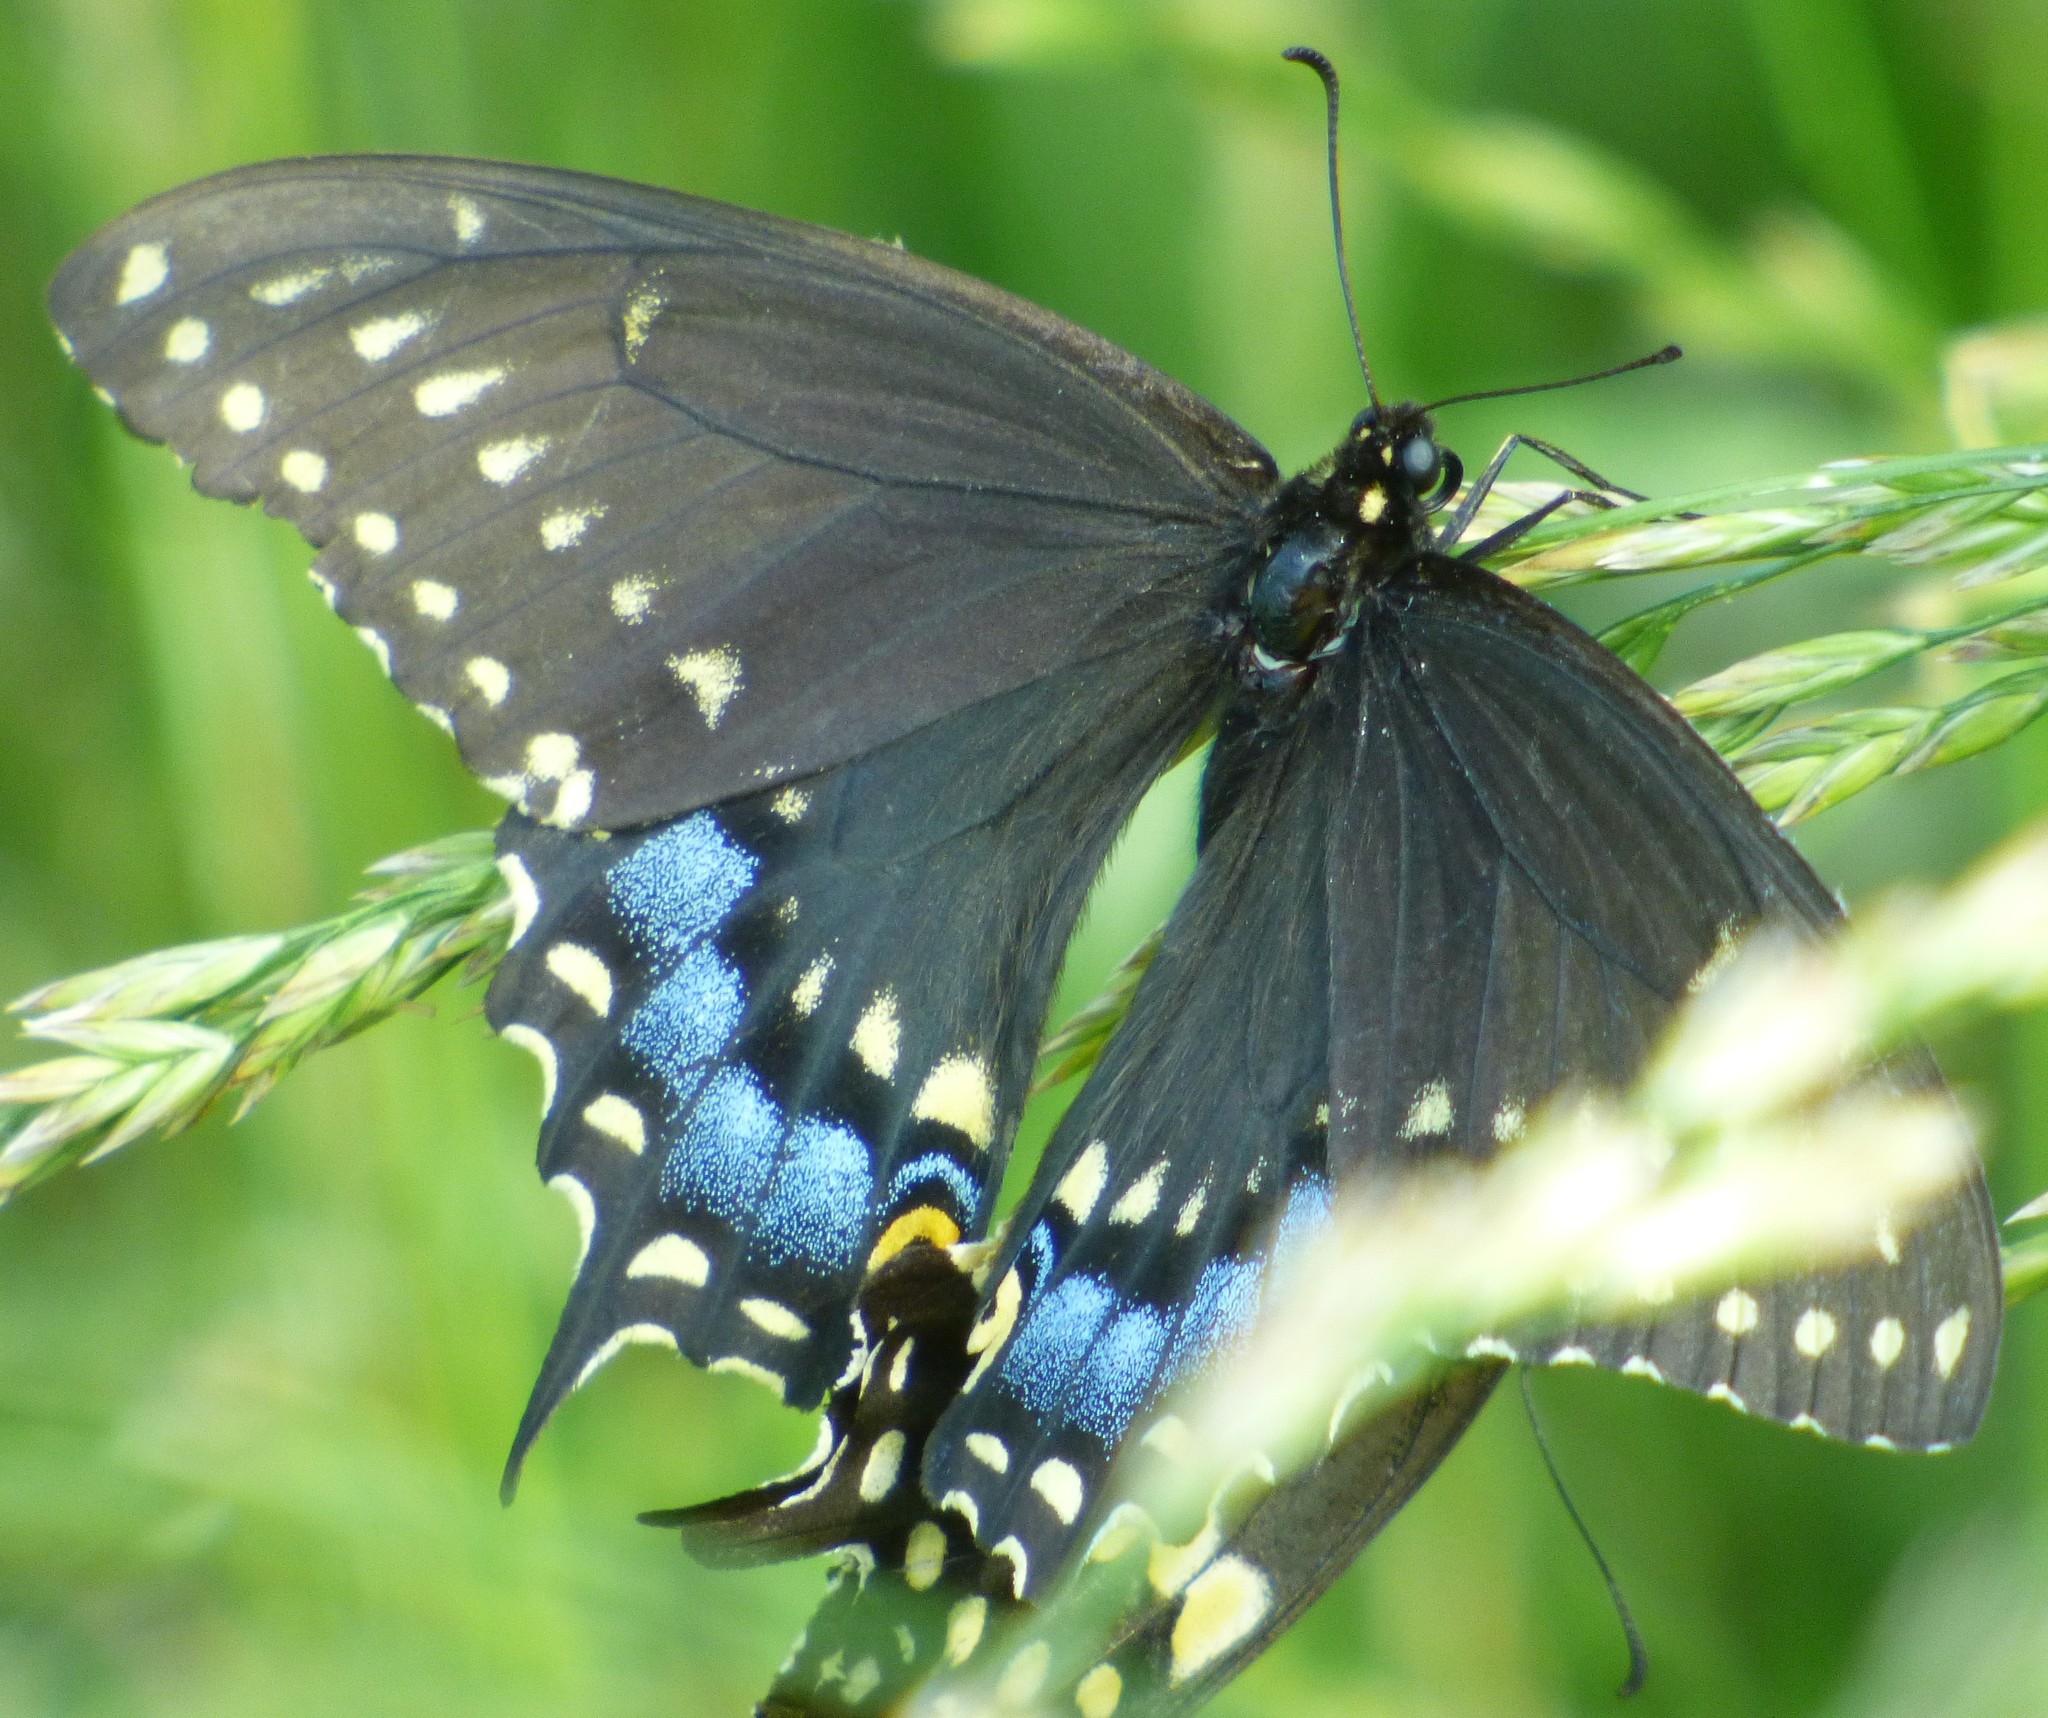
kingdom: Animalia
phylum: Arthropoda
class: Insecta
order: Lepidoptera
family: Papilionidae
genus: Papilio
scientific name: Papilio polyxenes
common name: Black swallowtail
